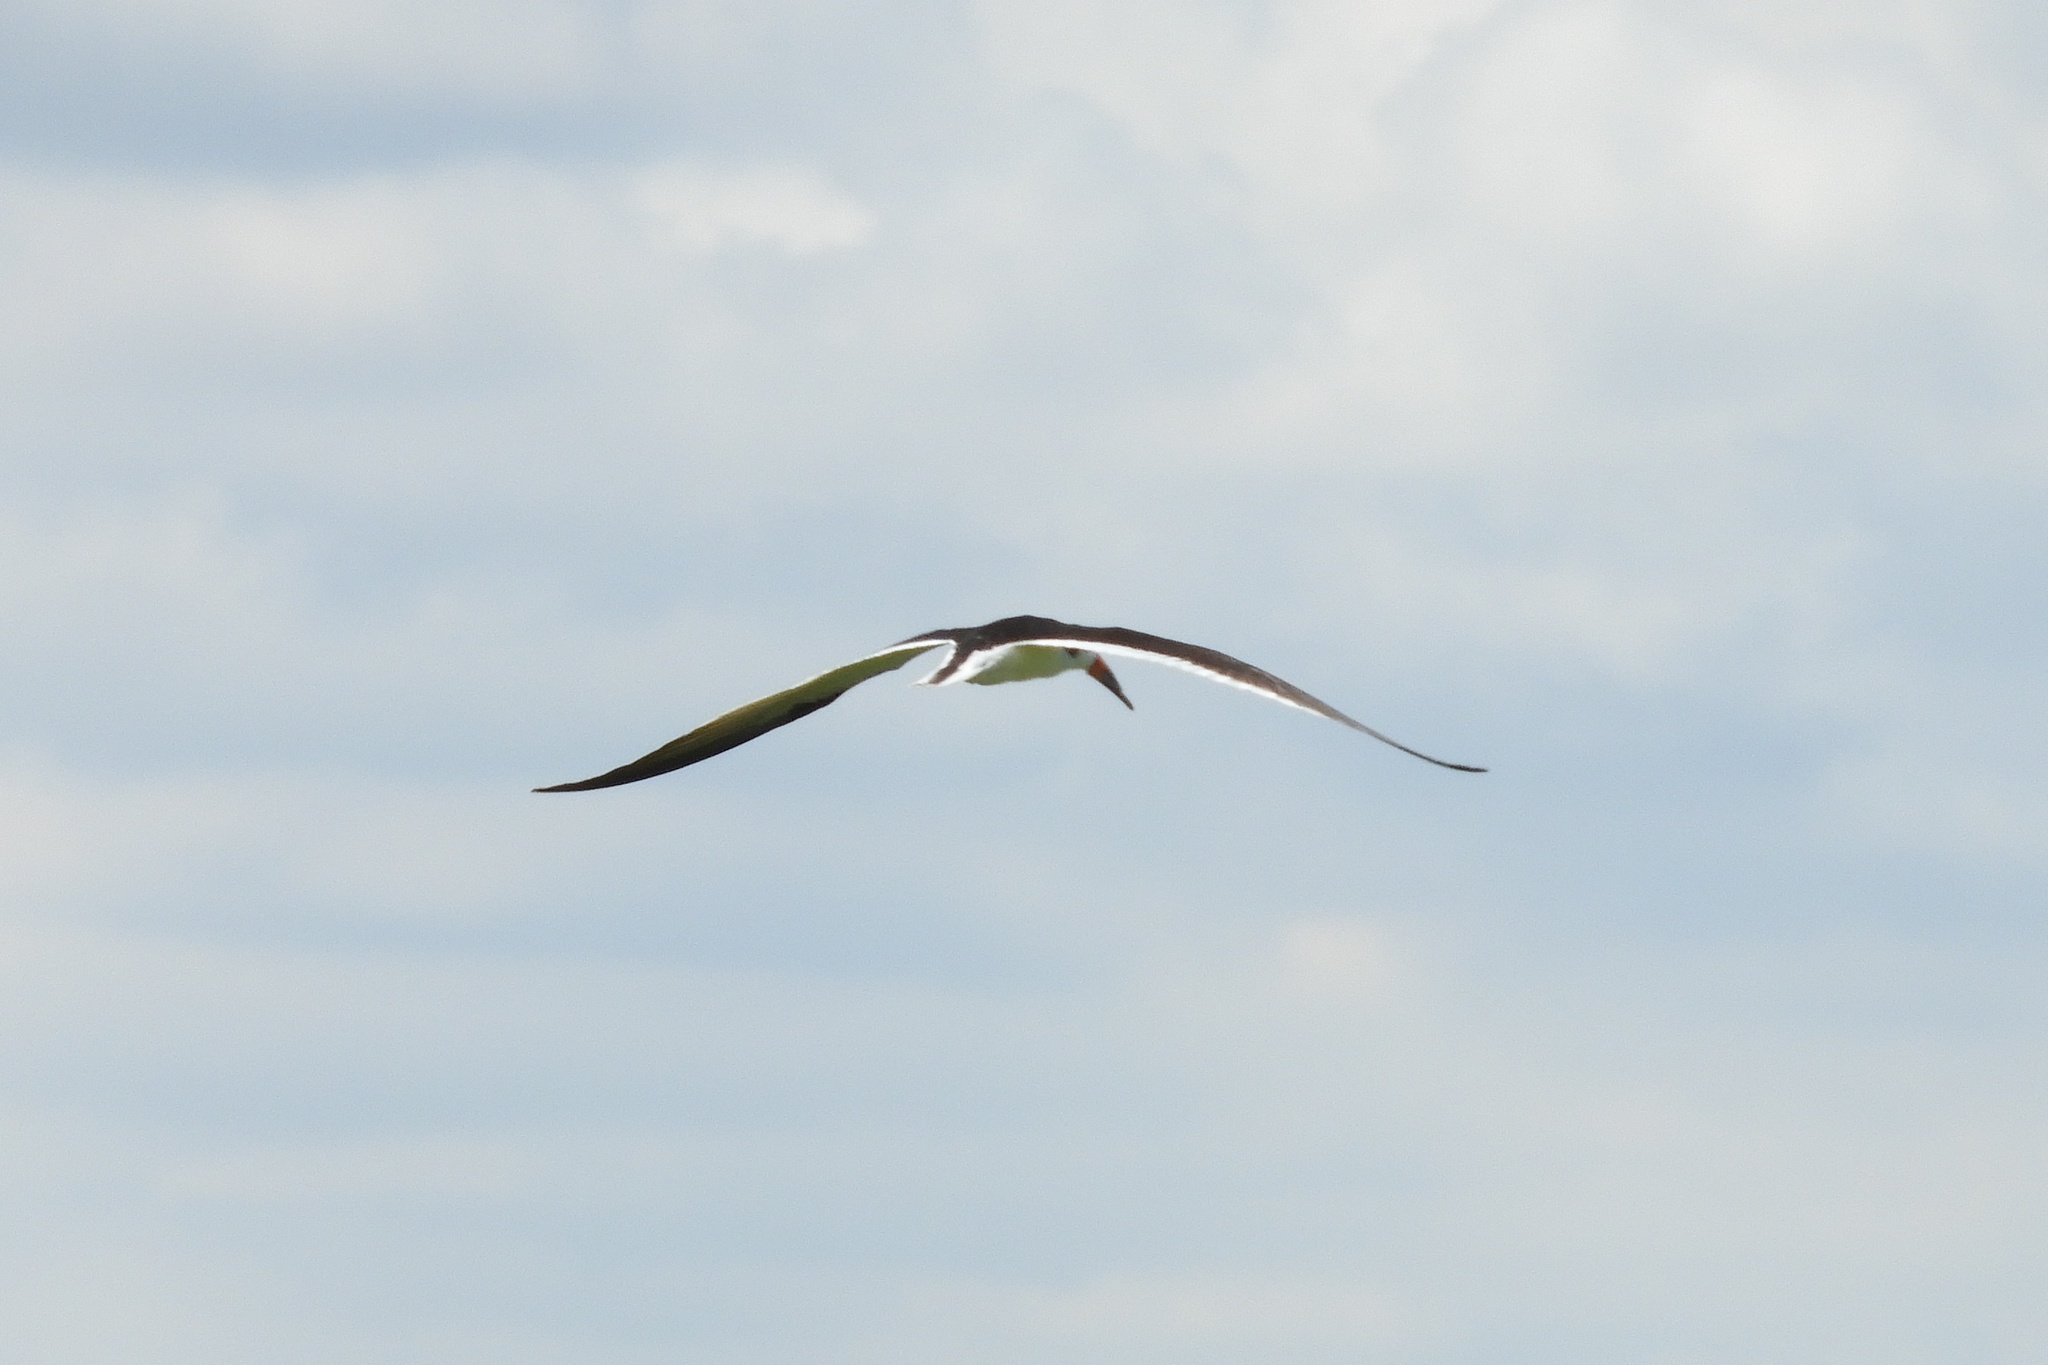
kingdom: Animalia
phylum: Chordata
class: Aves
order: Charadriiformes
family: Laridae
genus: Rynchops
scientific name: Rynchops niger
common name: Black skimmer
